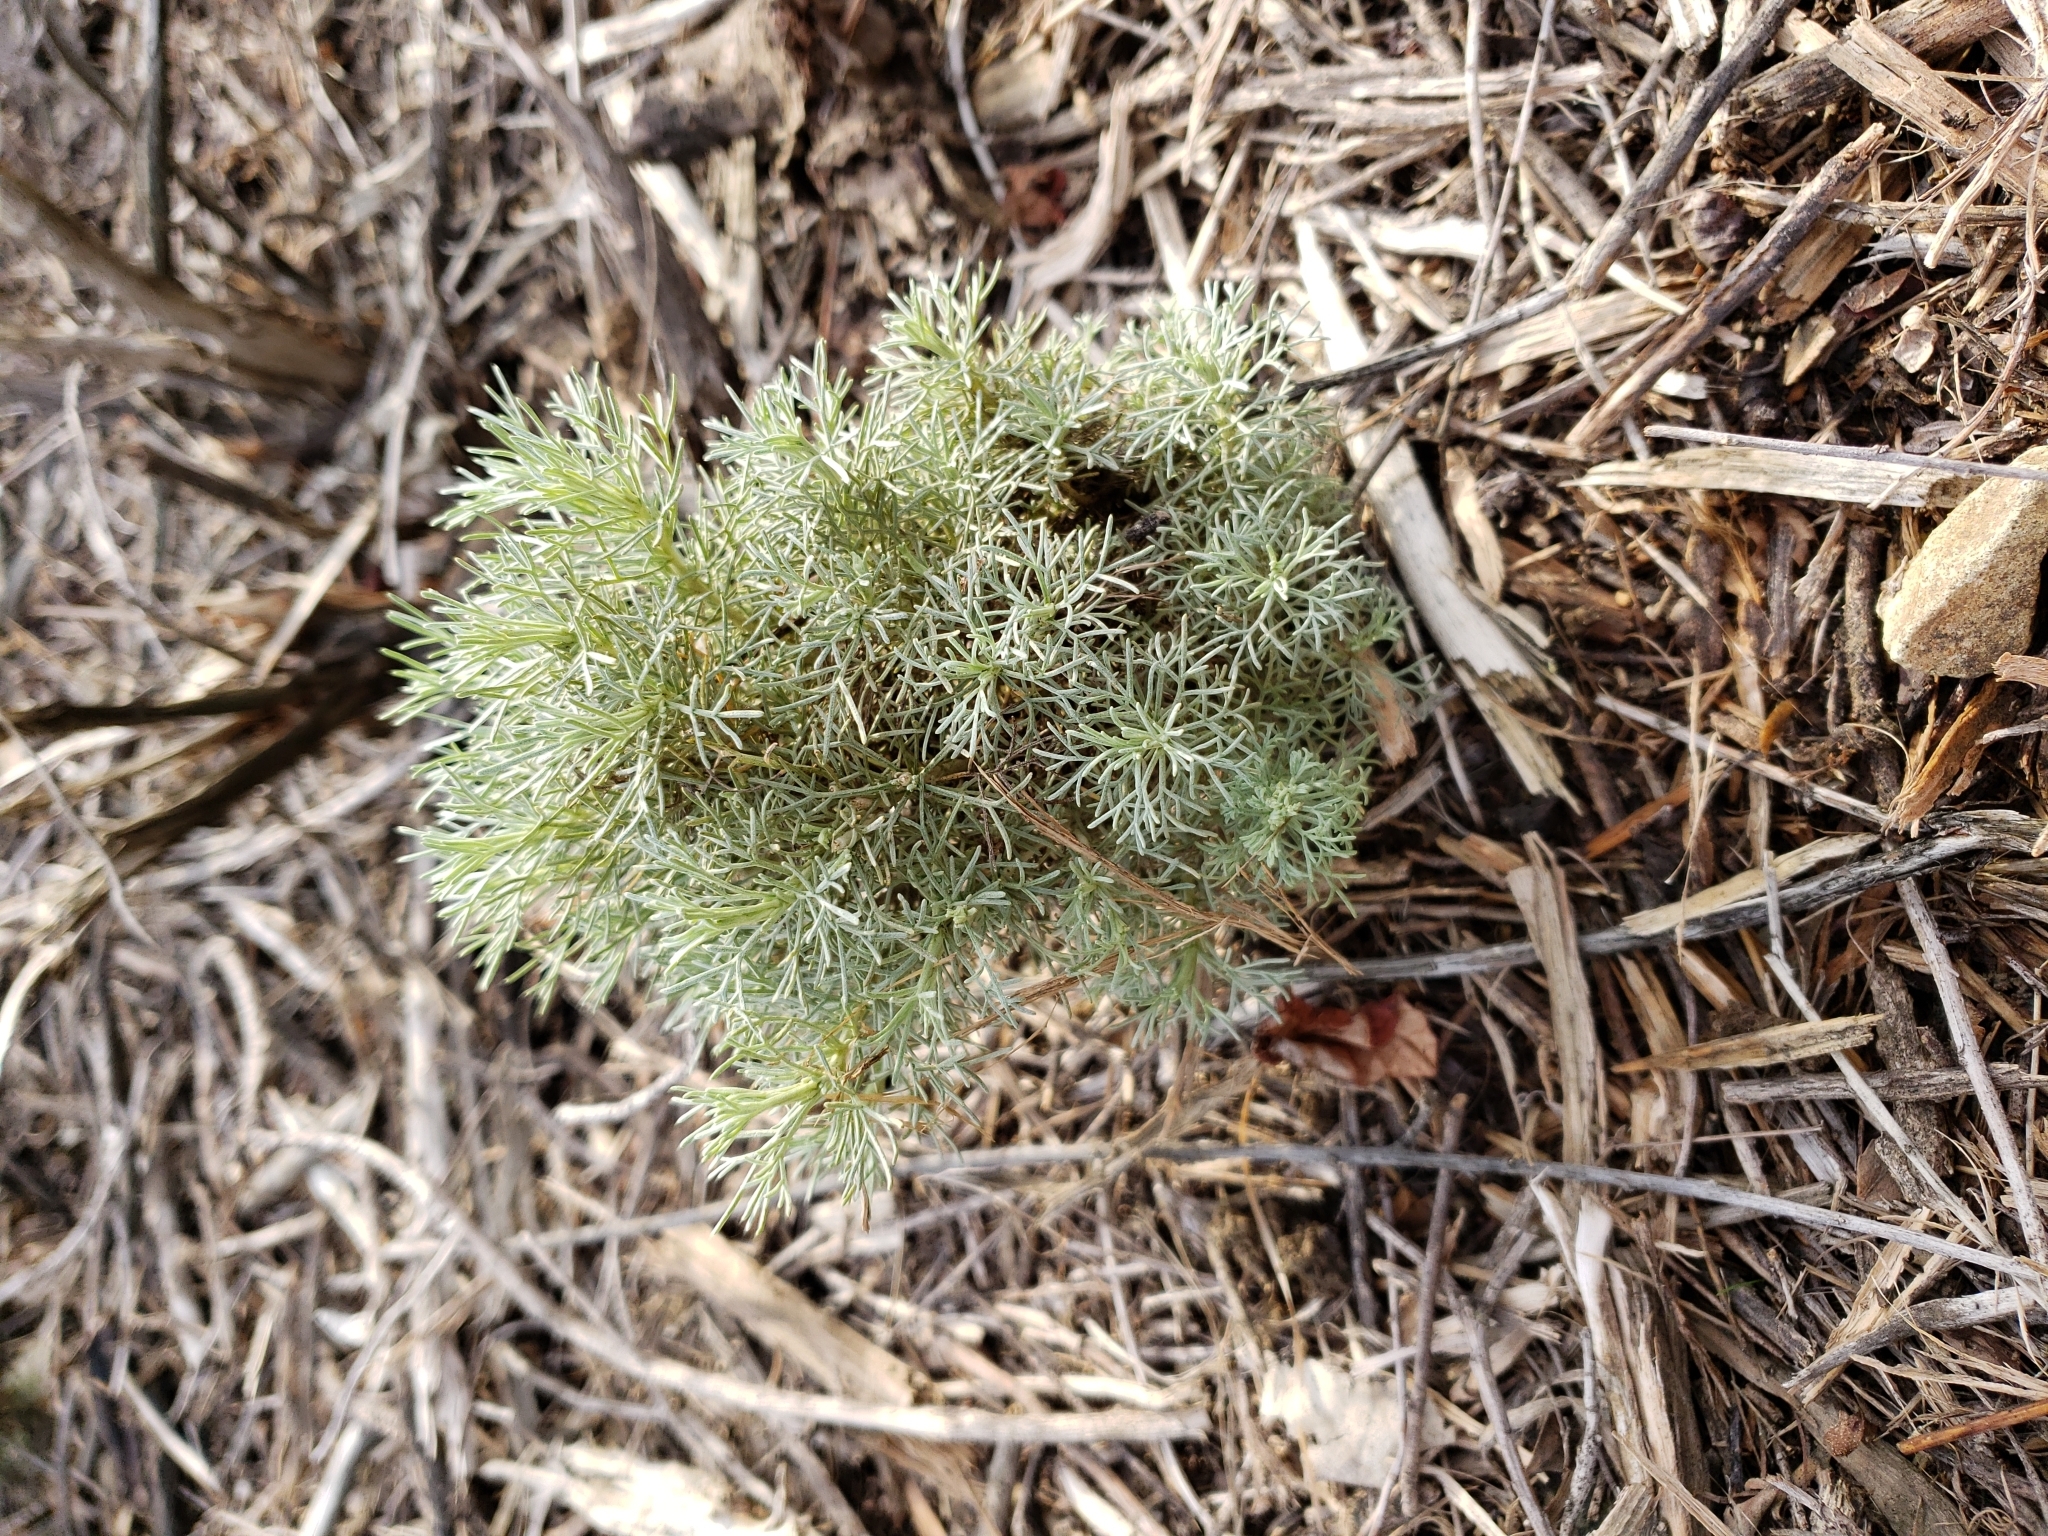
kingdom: Plantae
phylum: Tracheophyta
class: Magnoliopsida
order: Asterales
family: Asteraceae
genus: Artemisia
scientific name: Artemisia californica
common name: California sagebrush
